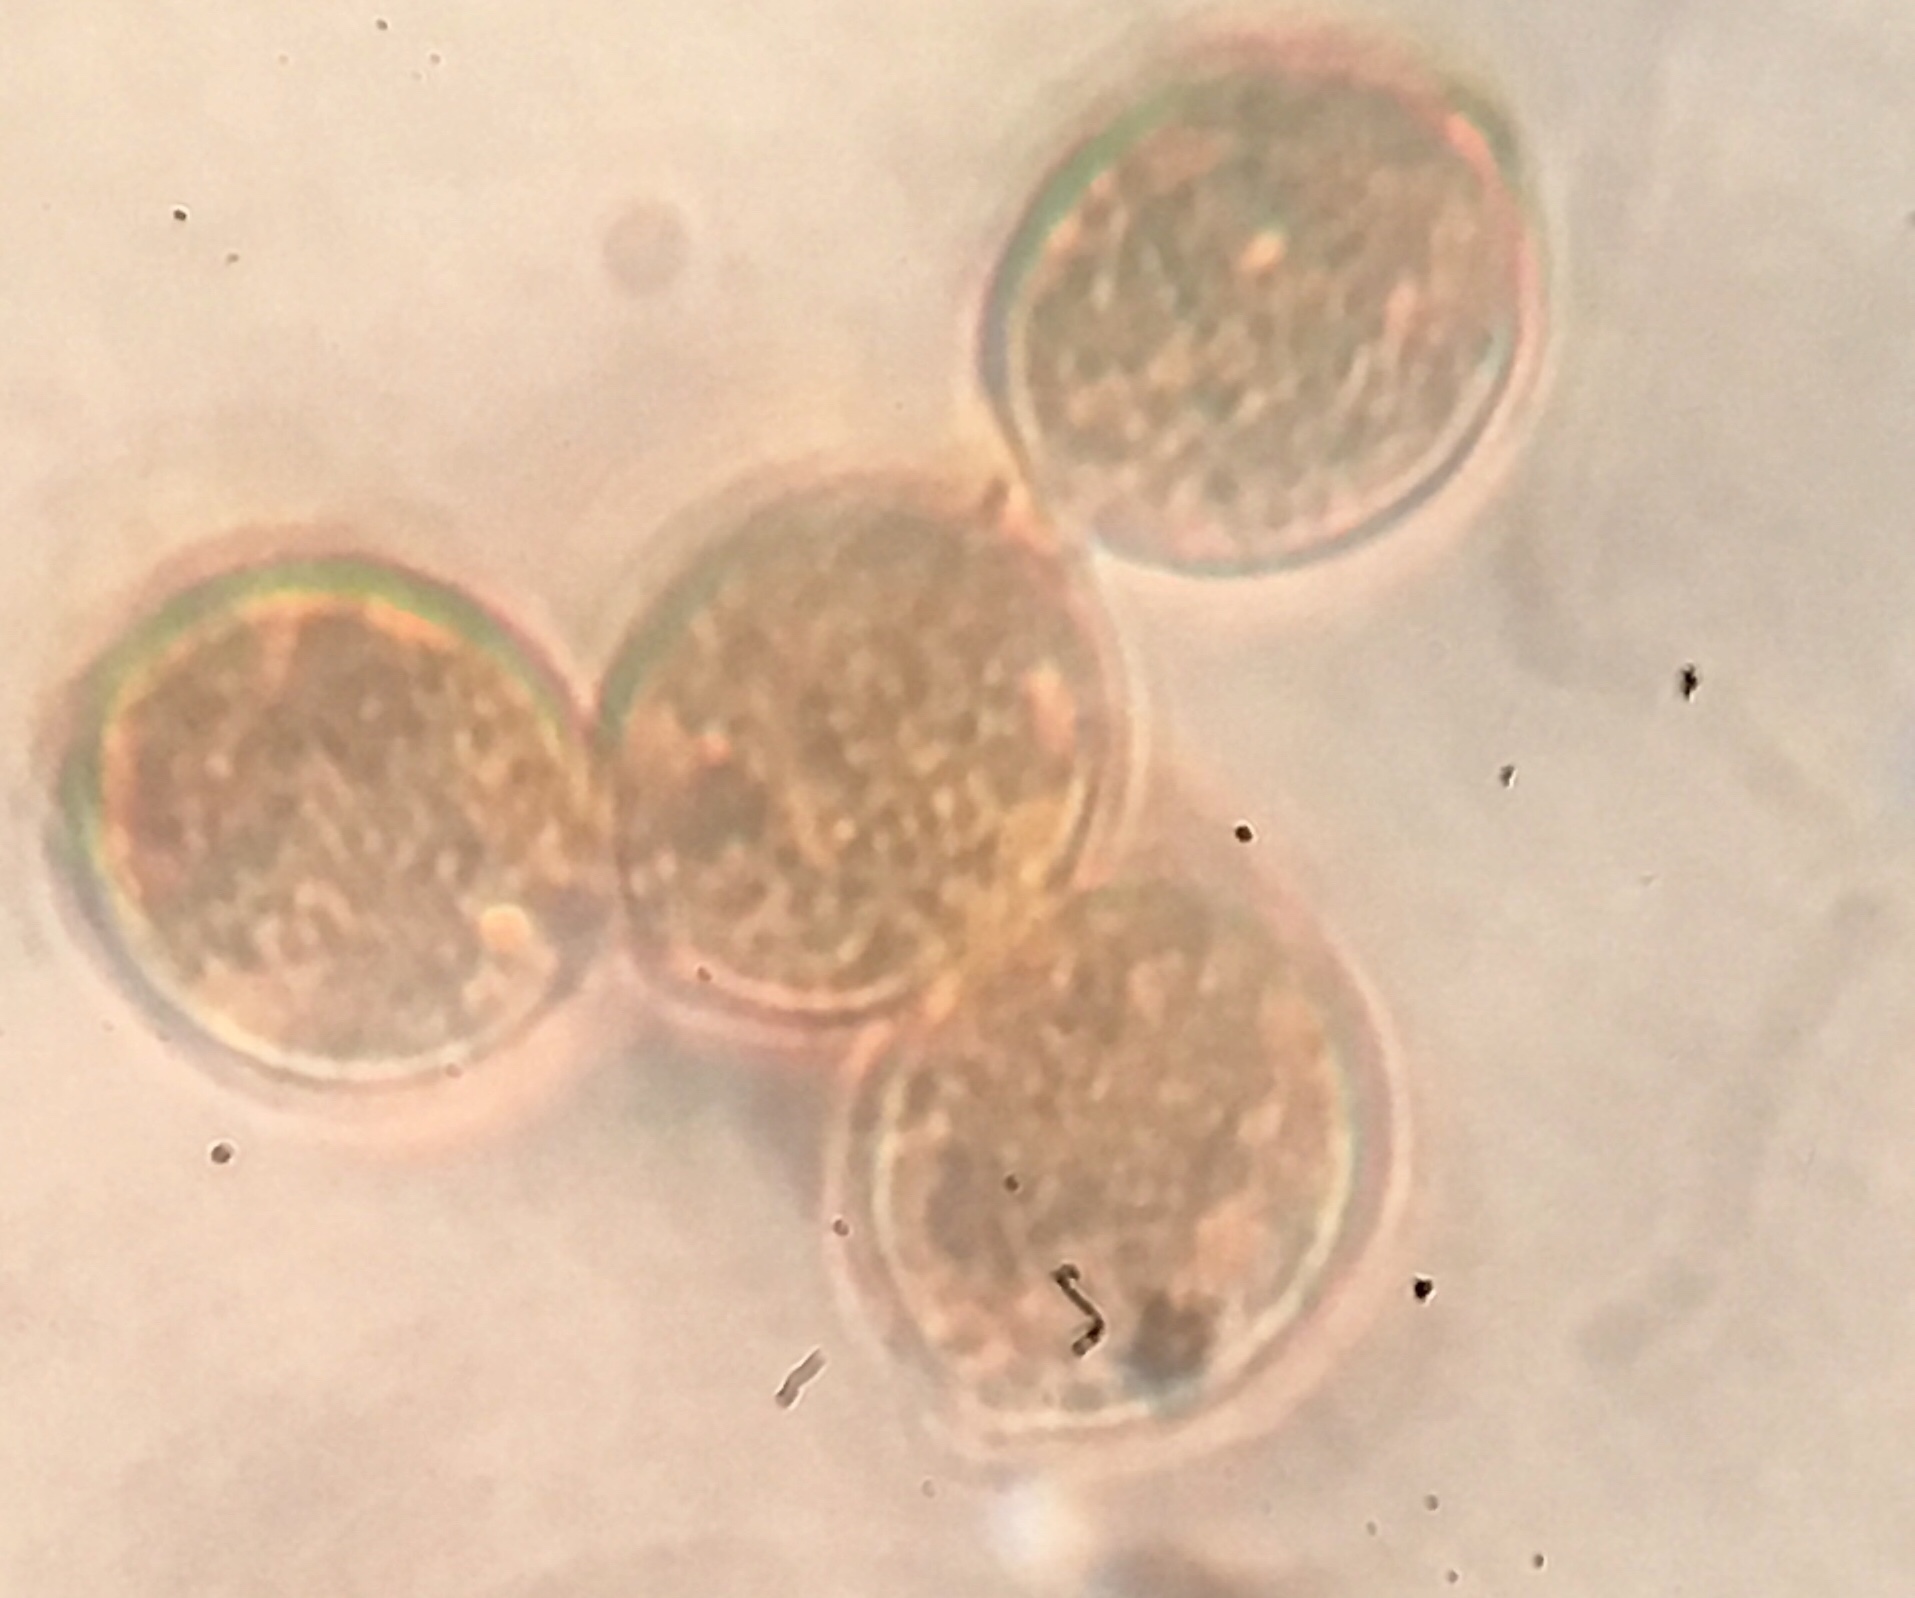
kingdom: Fungi
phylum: Basidiomycota
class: Agaricomycetes
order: Cantharellales
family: Botryobasidiaceae
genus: Botryobasidium
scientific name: Botryobasidium simile
